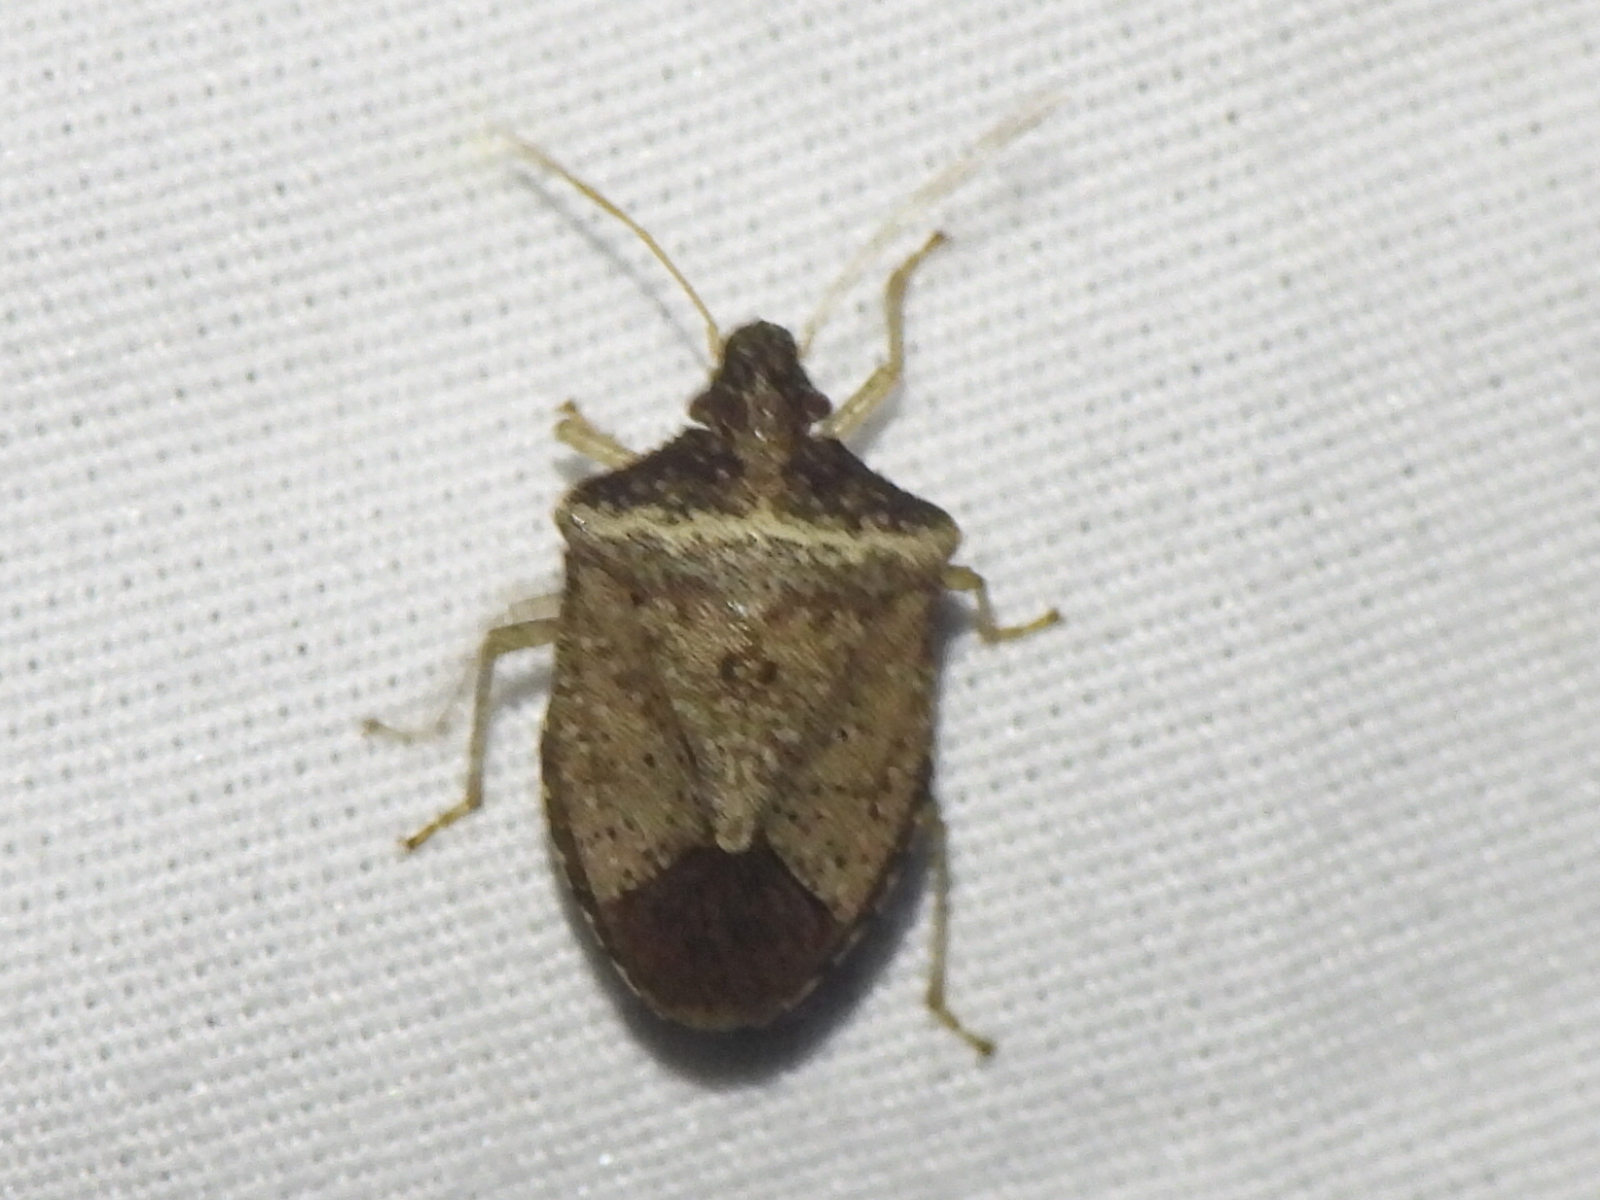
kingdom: Animalia
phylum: Arthropoda
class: Insecta
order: Hemiptera
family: Pentatomidae
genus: Euschistus
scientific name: Euschistus obscurus
